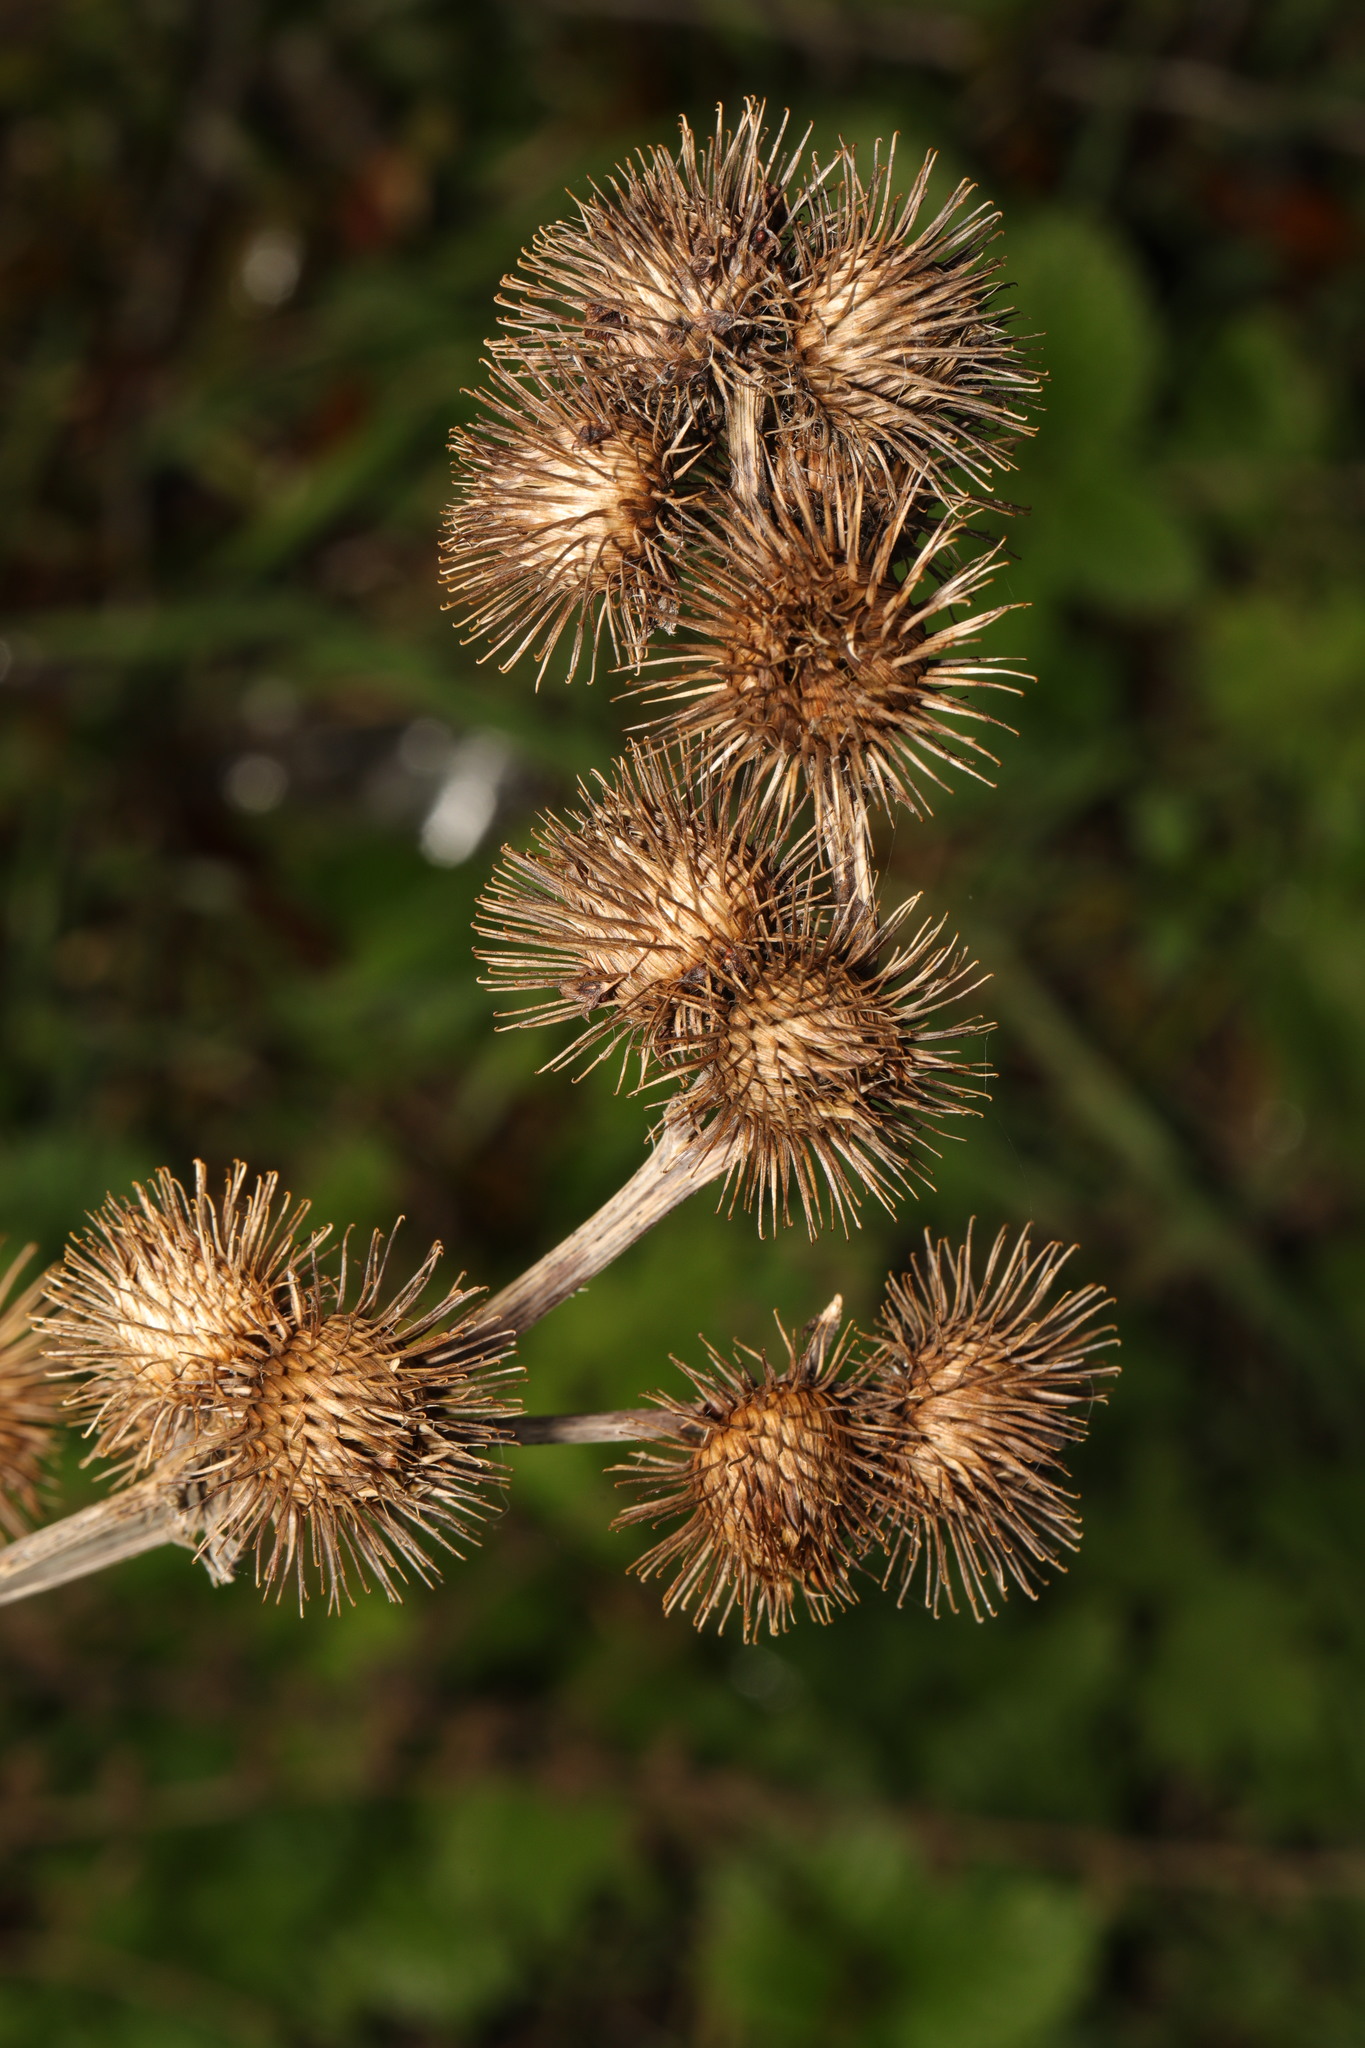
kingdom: Plantae
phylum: Tracheophyta
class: Magnoliopsida
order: Asterales
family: Asteraceae
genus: Arctium
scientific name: Arctium minus
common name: Lesser burdock
